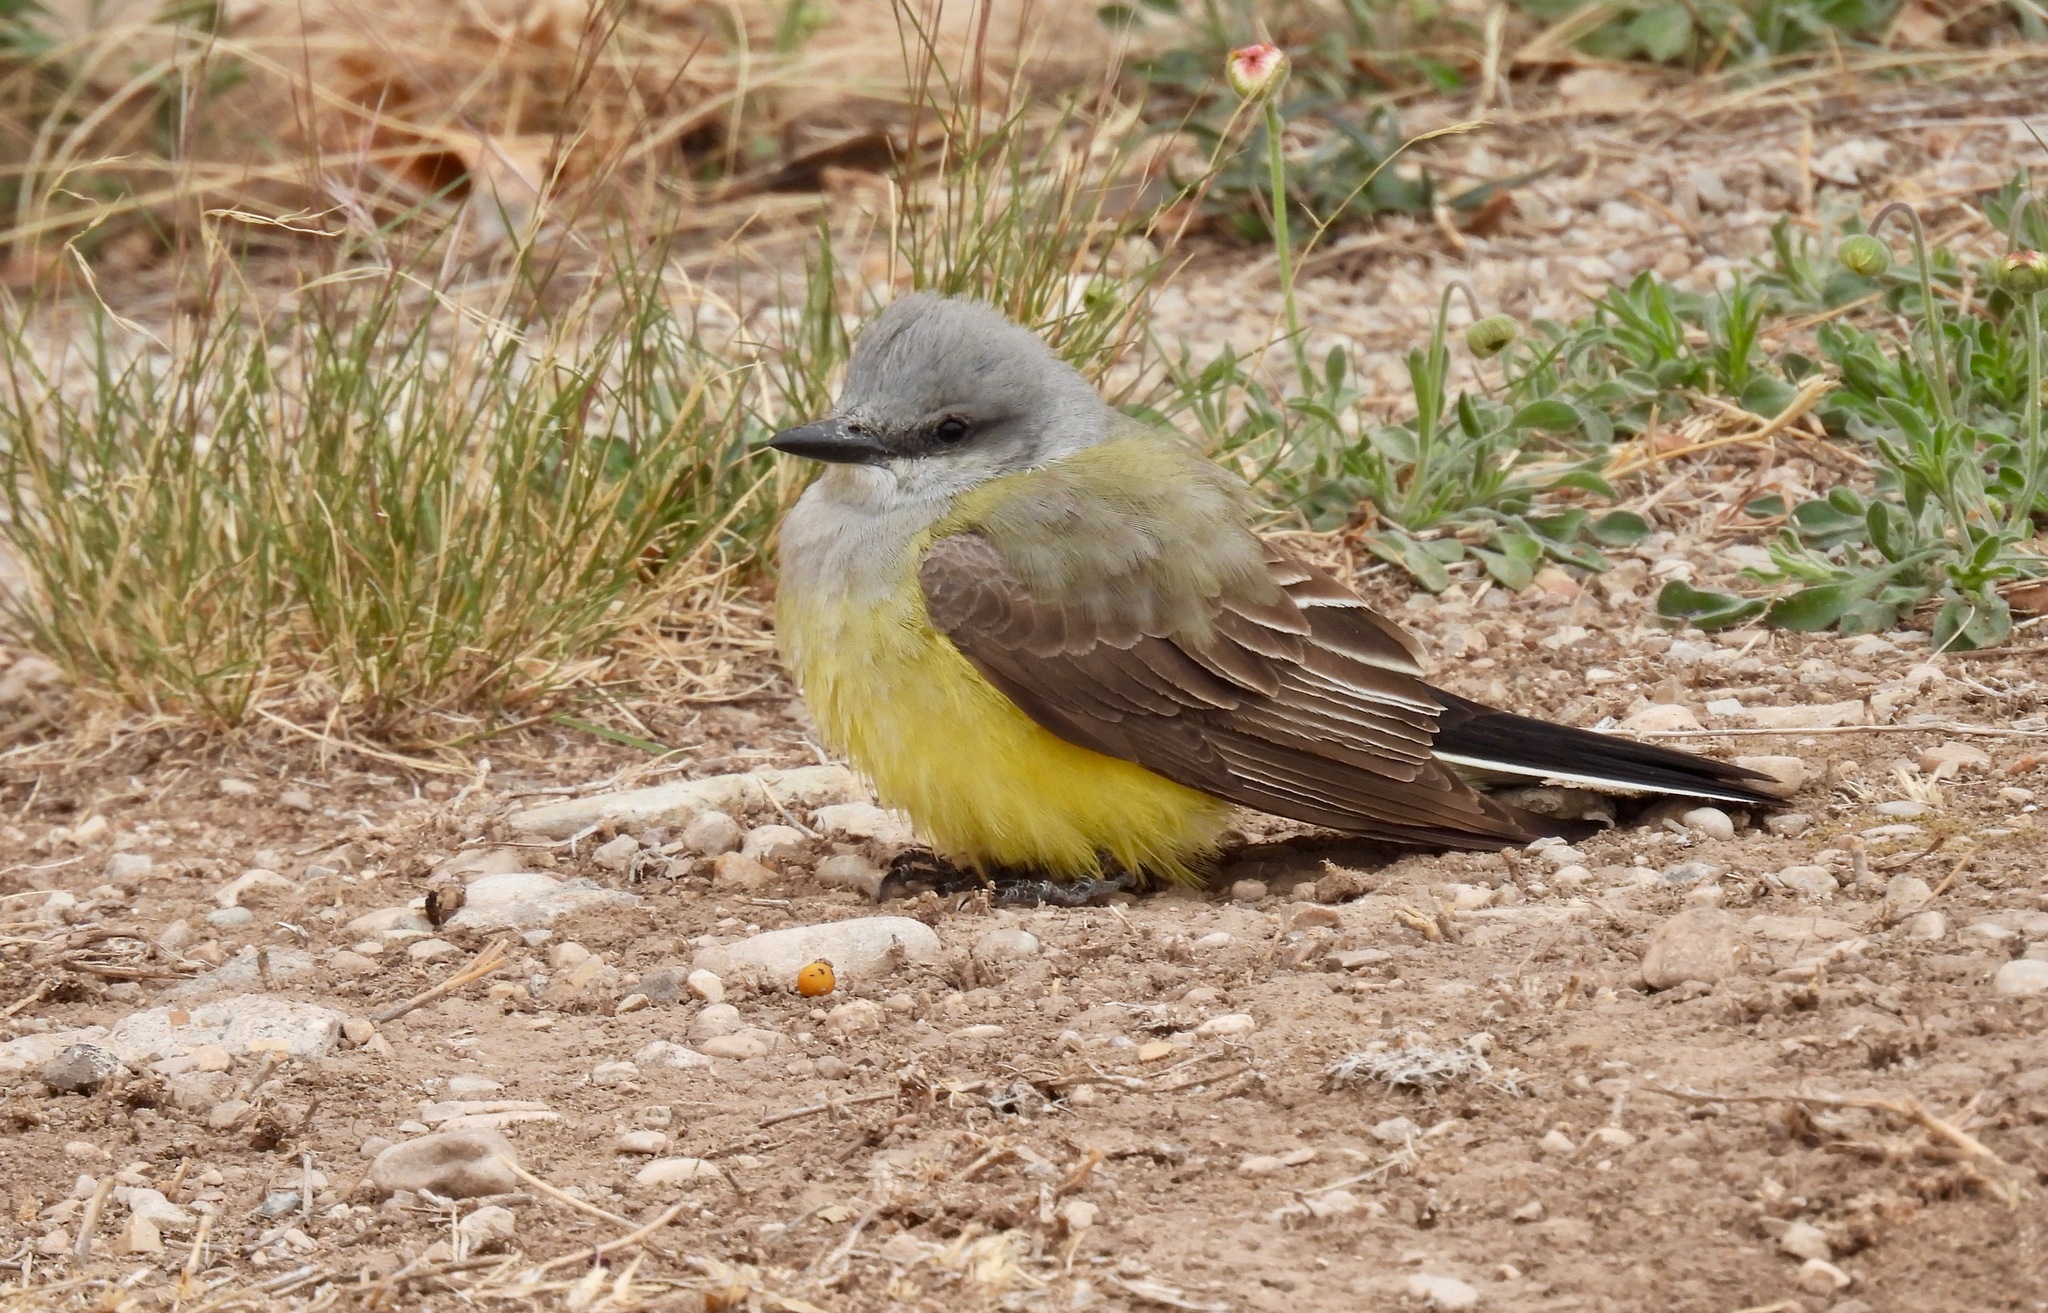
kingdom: Animalia
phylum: Chordata
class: Aves
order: Passeriformes
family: Tyrannidae
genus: Tyrannus
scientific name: Tyrannus verticalis
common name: Western kingbird
